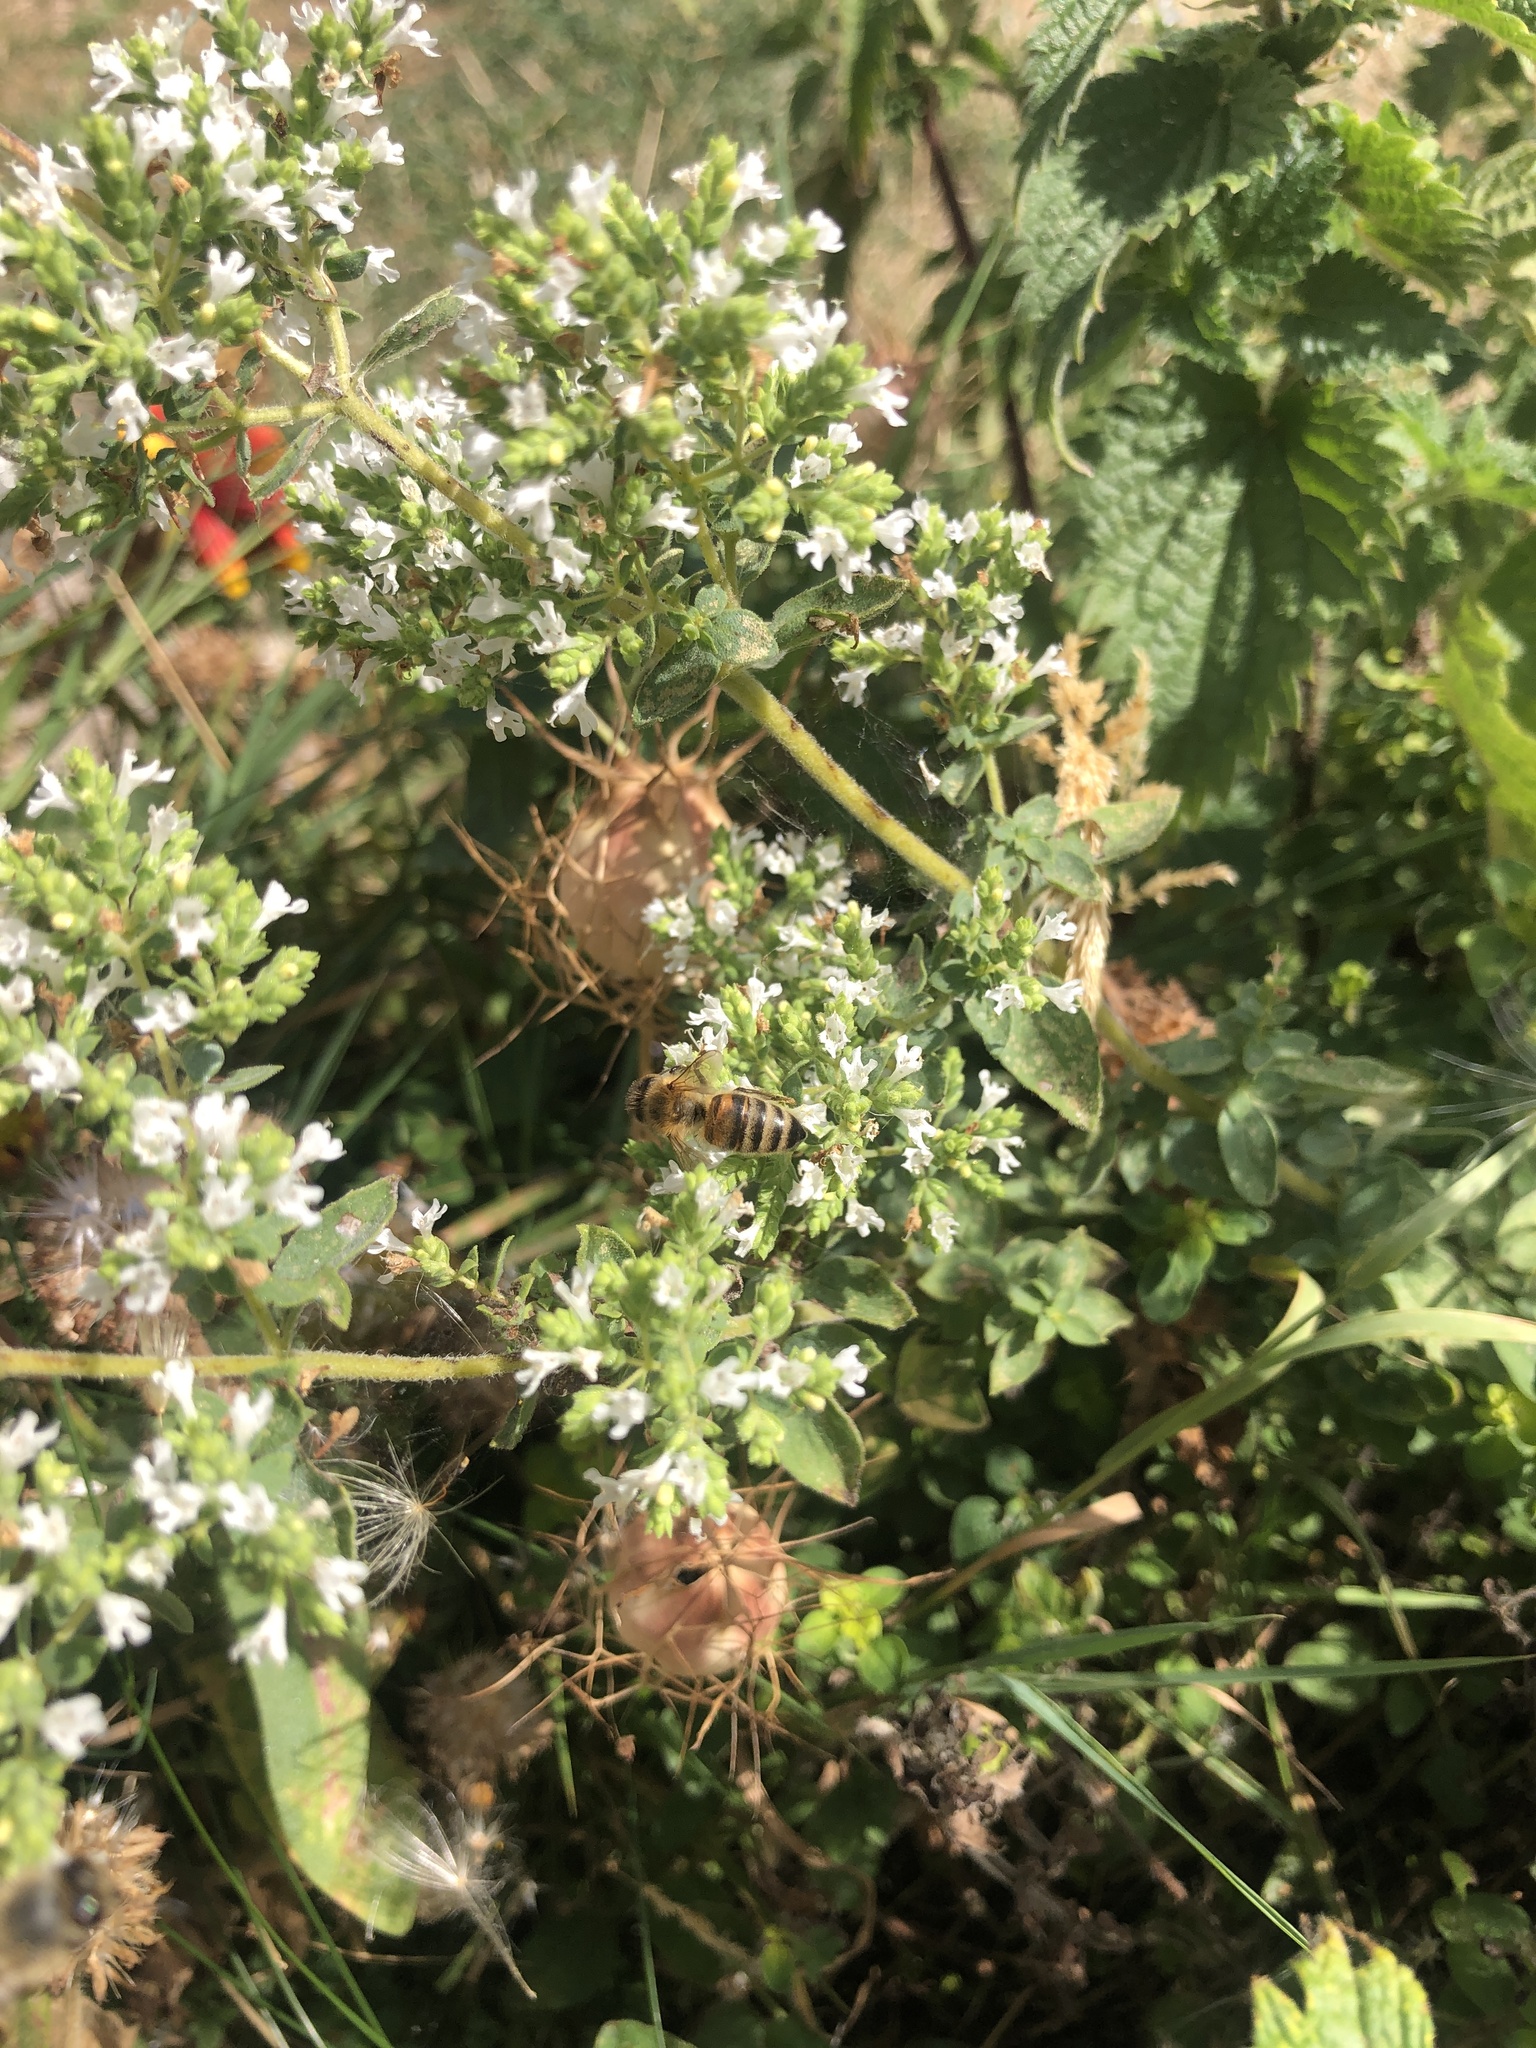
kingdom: Animalia
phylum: Arthropoda
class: Insecta
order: Hymenoptera
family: Apidae
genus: Apis
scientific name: Apis mellifera
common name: Honey bee
